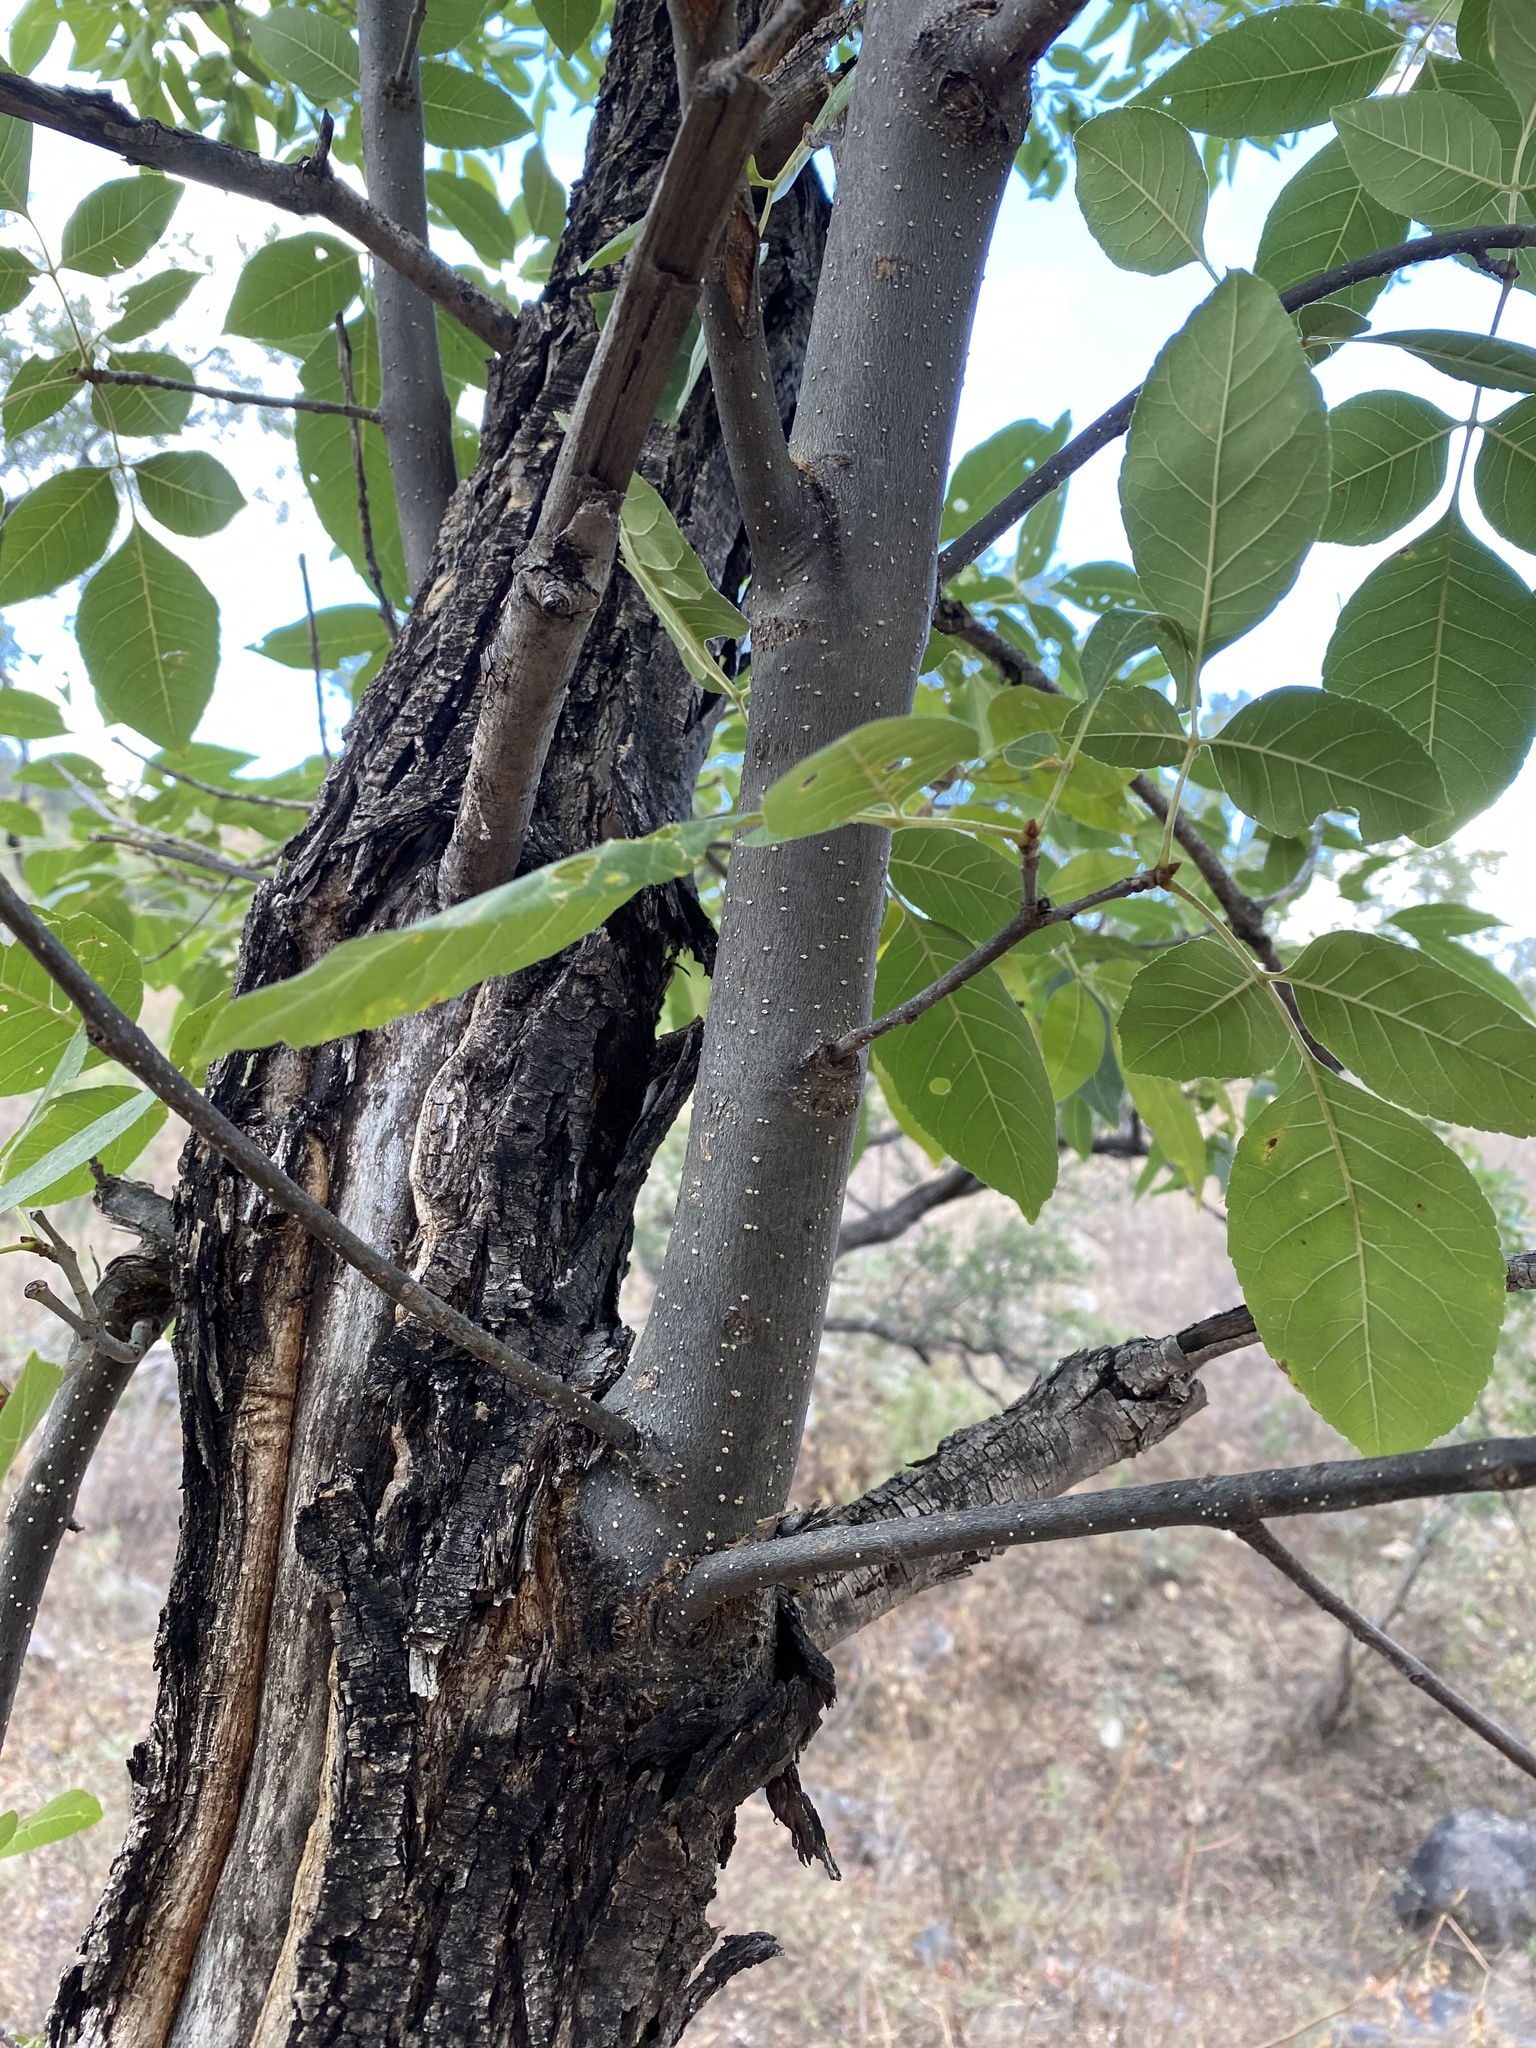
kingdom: Plantae
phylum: Tracheophyta
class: Magnoliopsida
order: Lamiales
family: Oleaceae
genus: Fraxinus
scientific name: Fraxinus velutina
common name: Arizon ash
